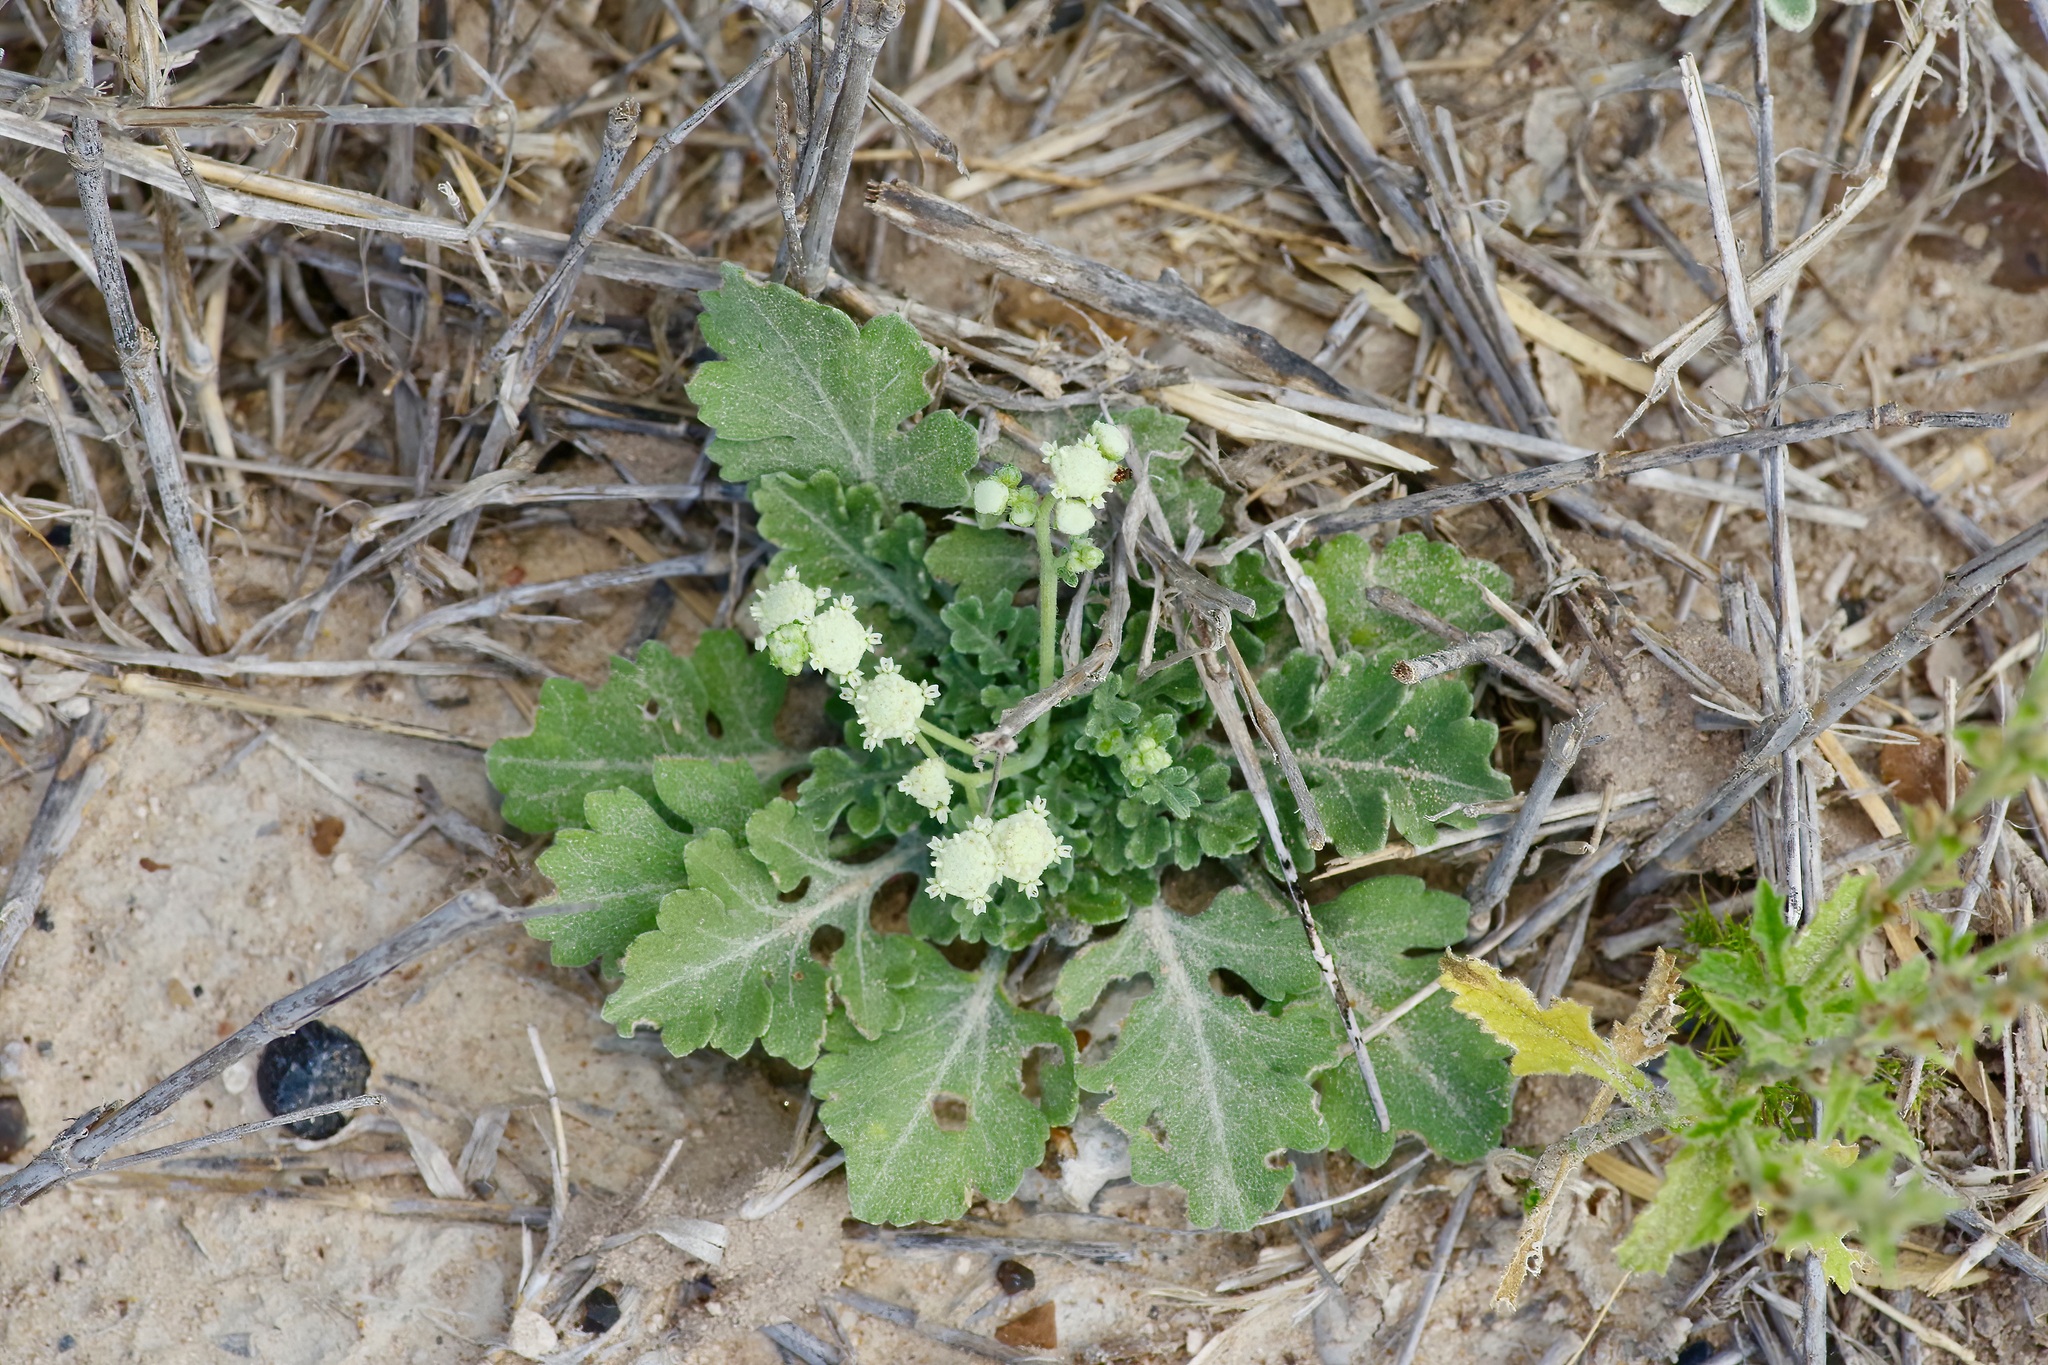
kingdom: Plantae
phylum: Tracheophyta
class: Magnoliopsida
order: Asterales
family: Asteraceae
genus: Parthenium
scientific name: Parthenium confertum
